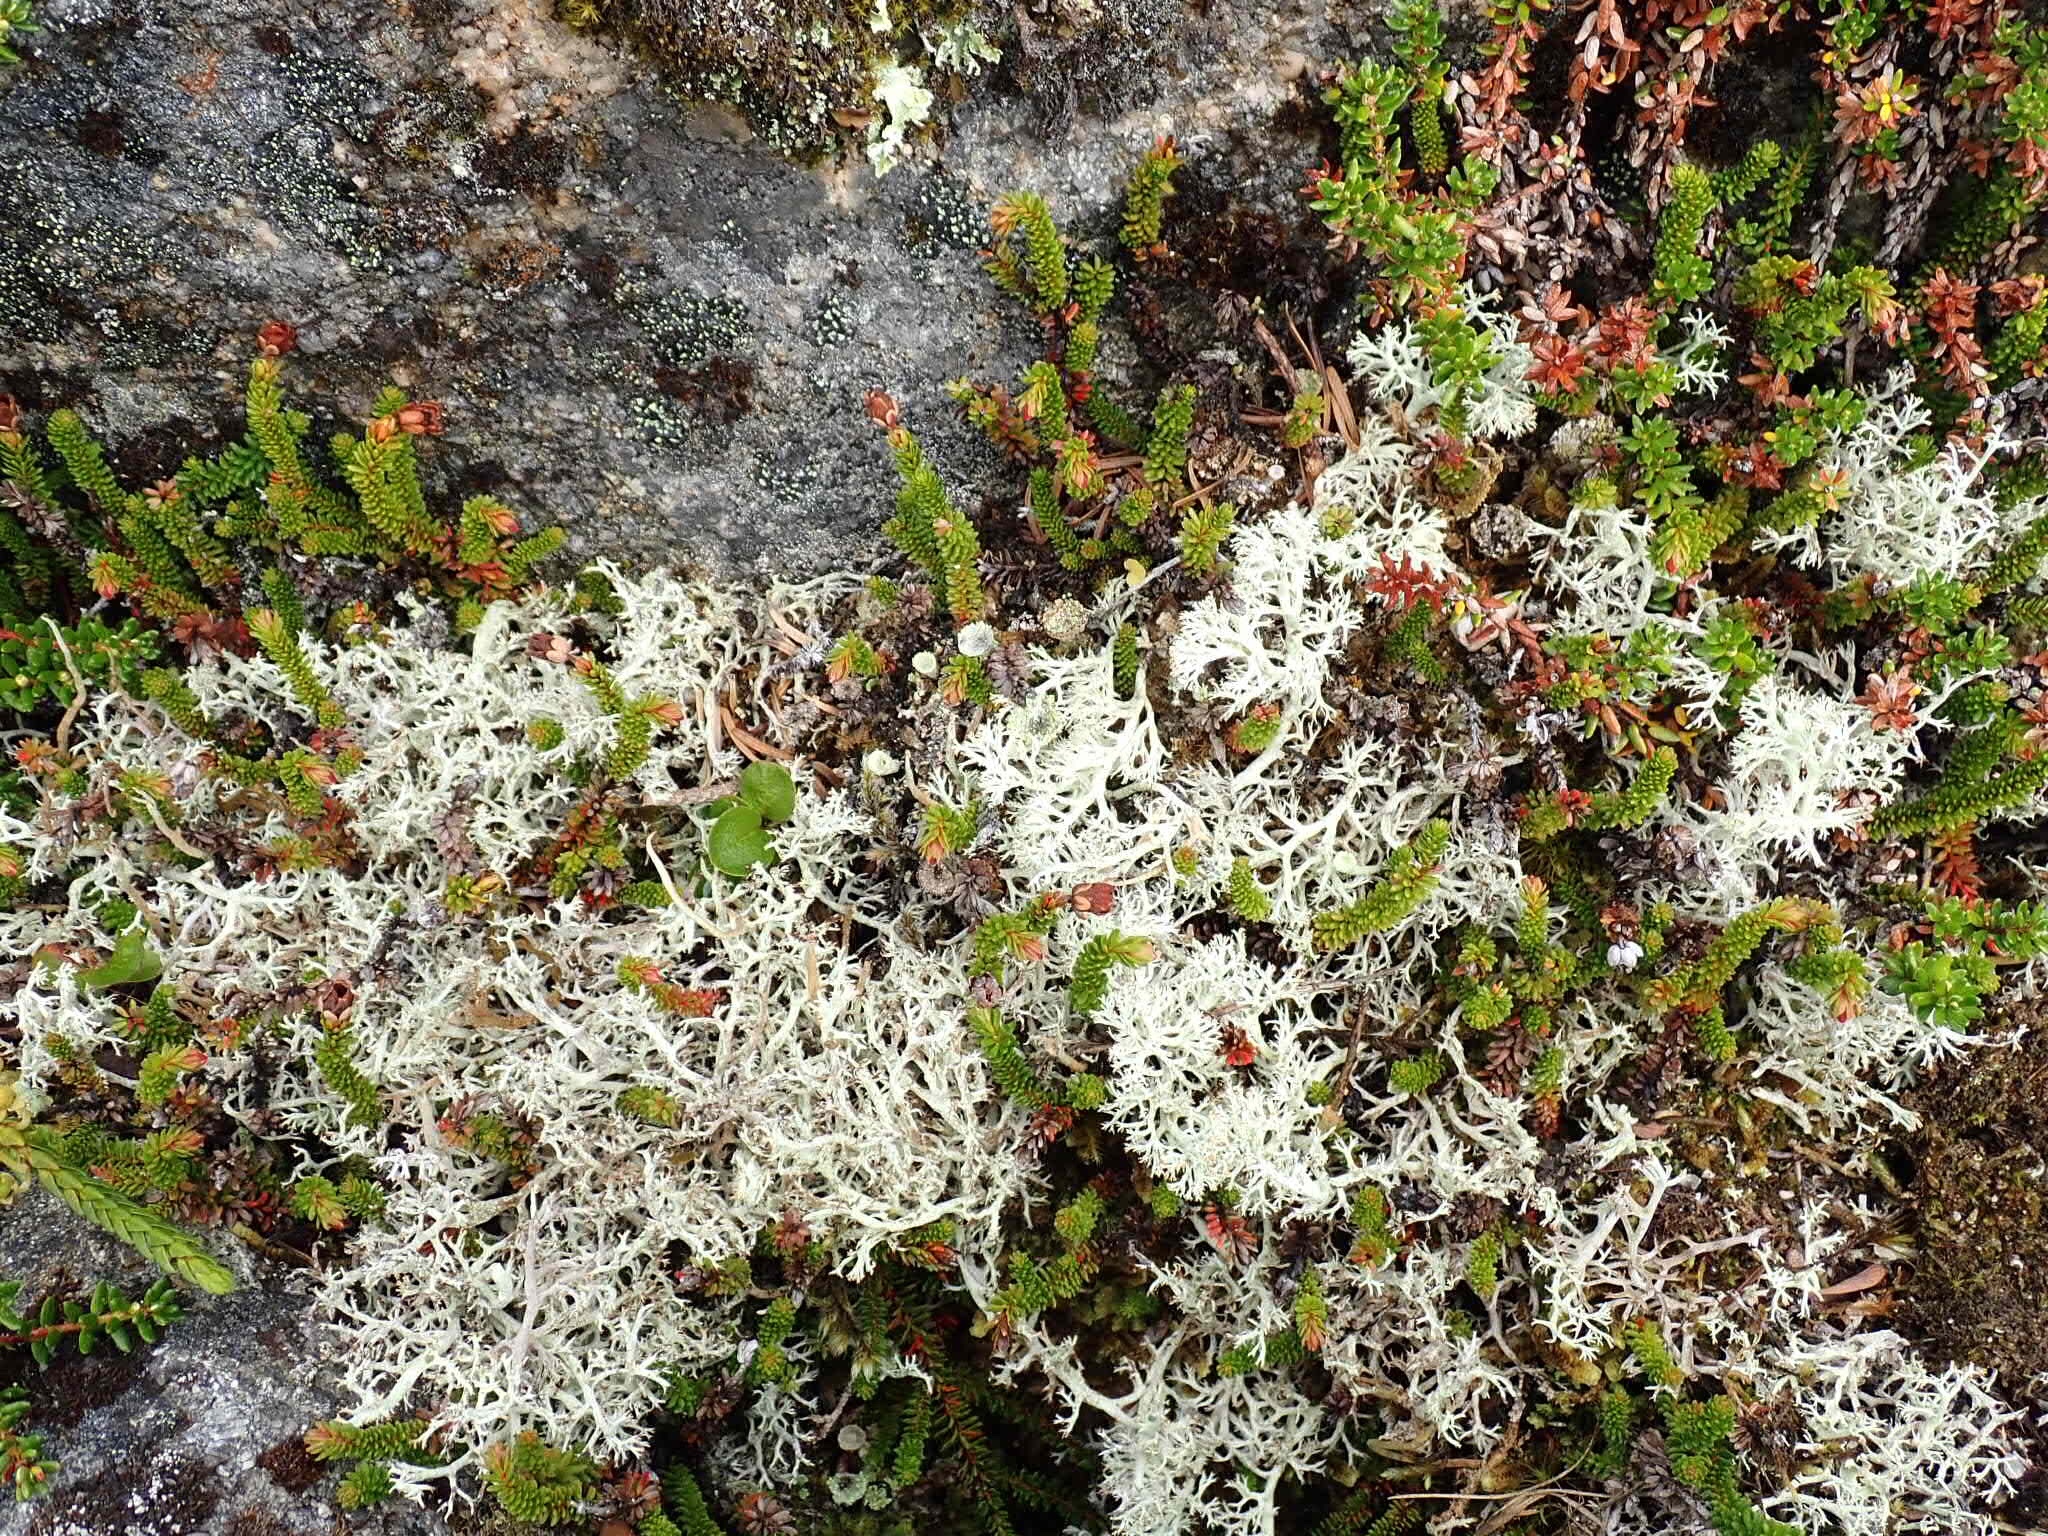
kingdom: Plantae
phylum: Tracheophyta
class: Magnoliopsida
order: Ericales
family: Ericaceae
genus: Harrimanella
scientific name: Harrimanella stelleriana
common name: Alaska bell heather
